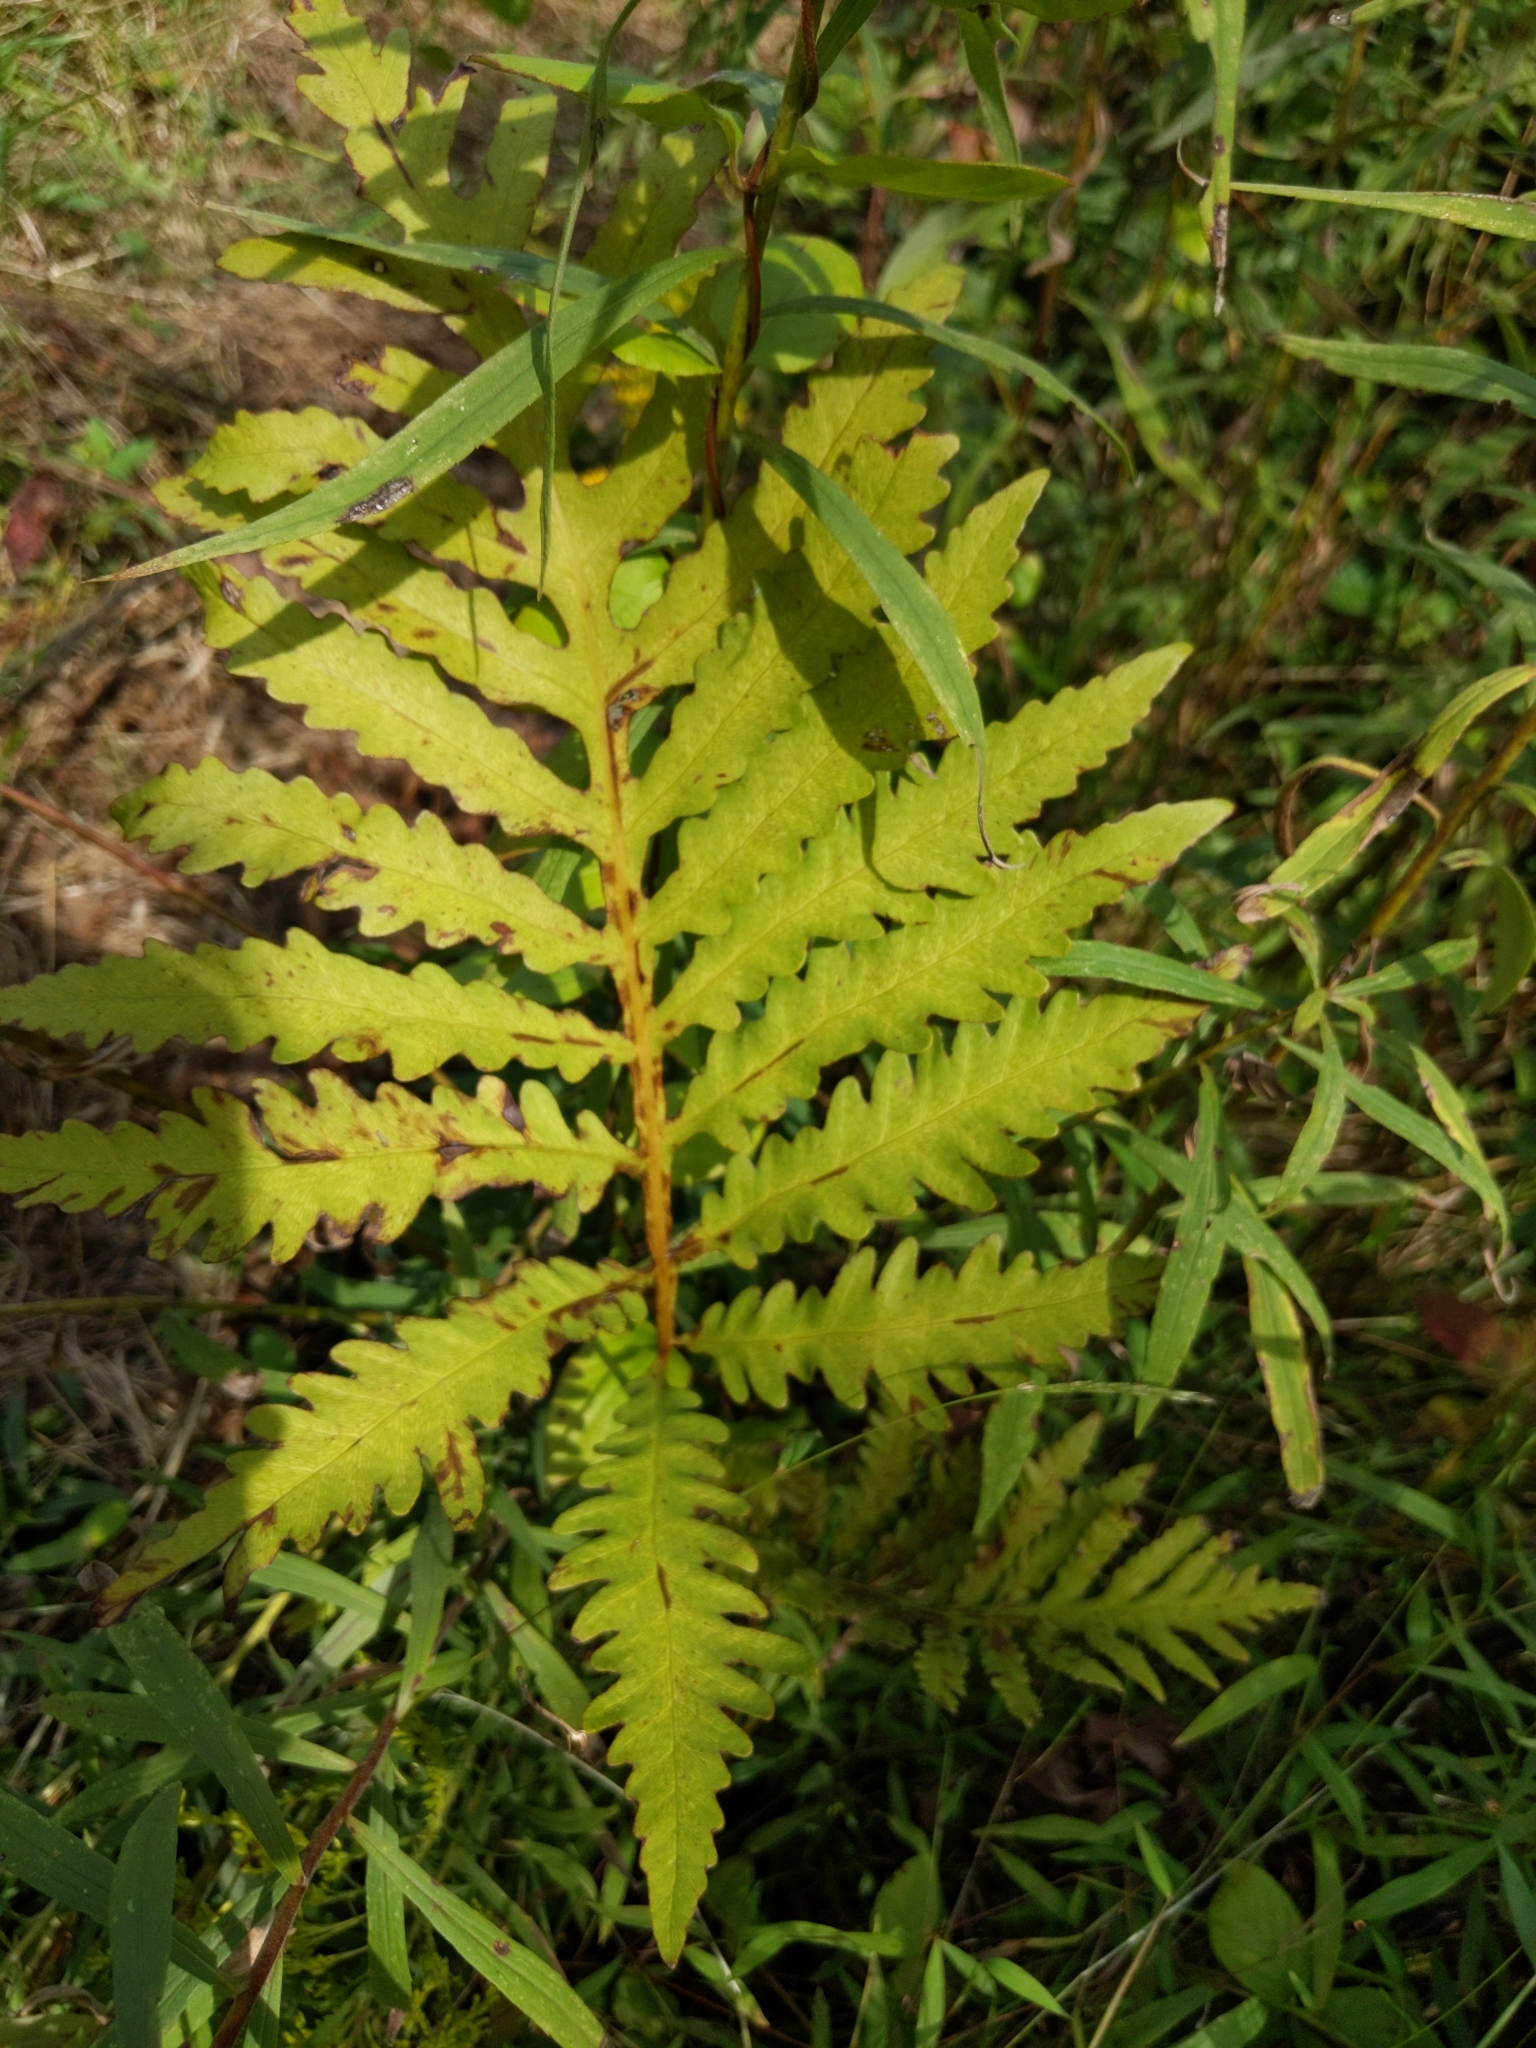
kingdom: Plantae
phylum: Tracheophyta
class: Polypodiopsida
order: Polypodiales
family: Onocleaceae
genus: Onoclea
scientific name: Onoclea sensibilis
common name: Sensitive fern
